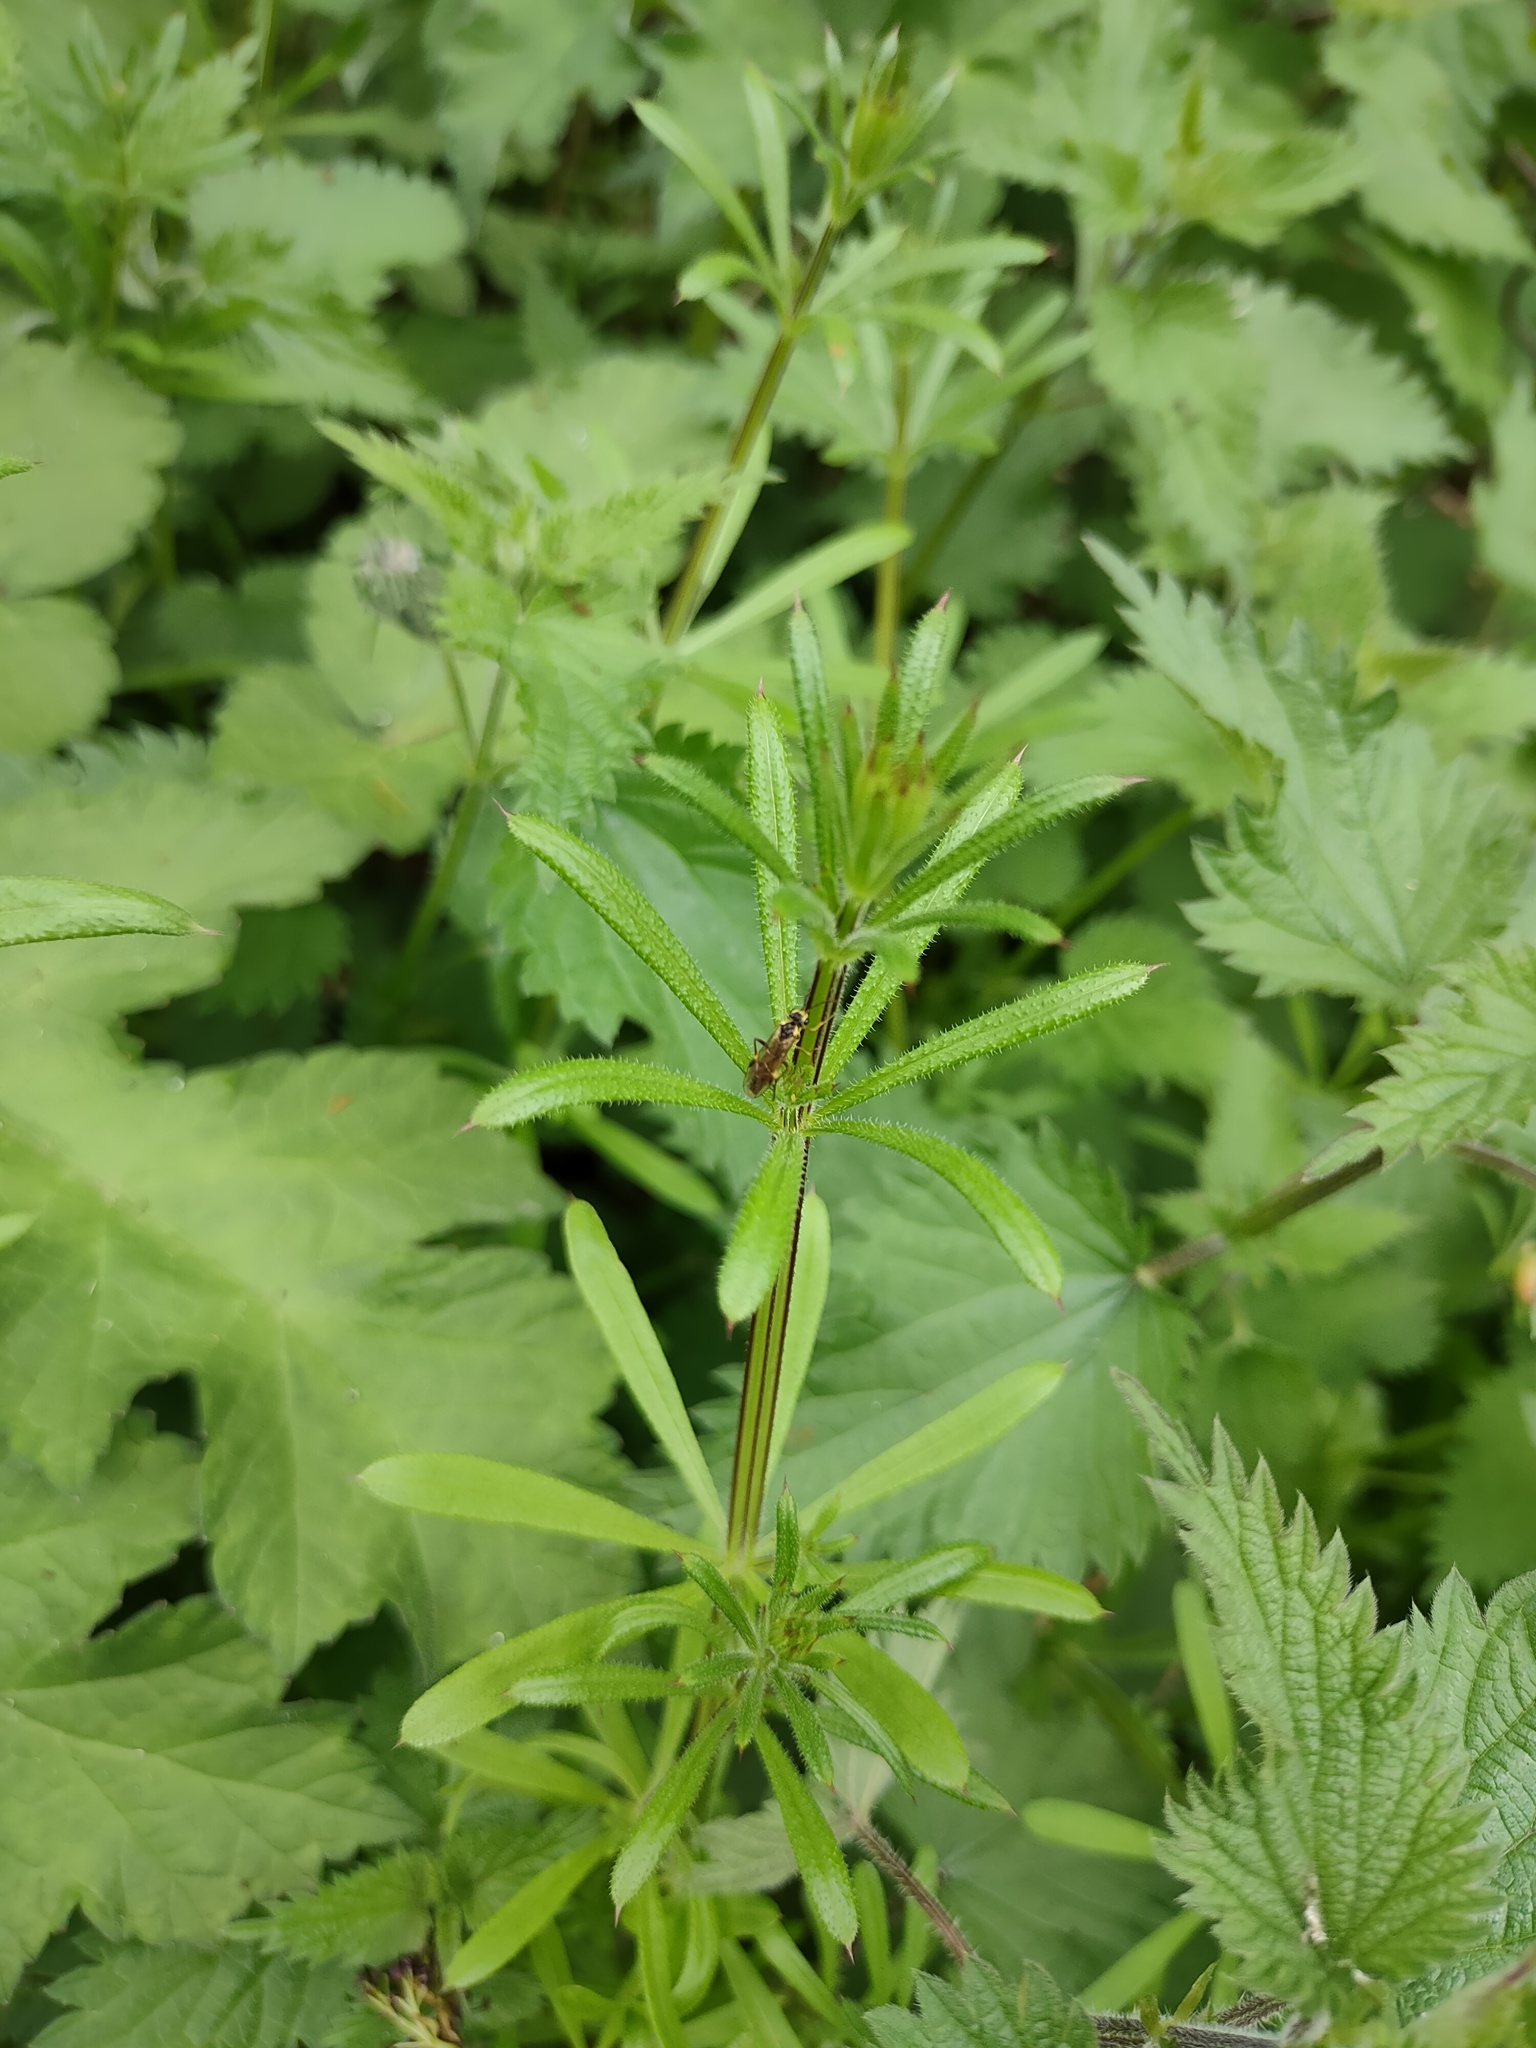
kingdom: Plantae
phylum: Tracheophyta
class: Magnoliopsida
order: Gentianales
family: Rubiaceae
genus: Galium
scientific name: Galium aparine
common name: Cleavers
